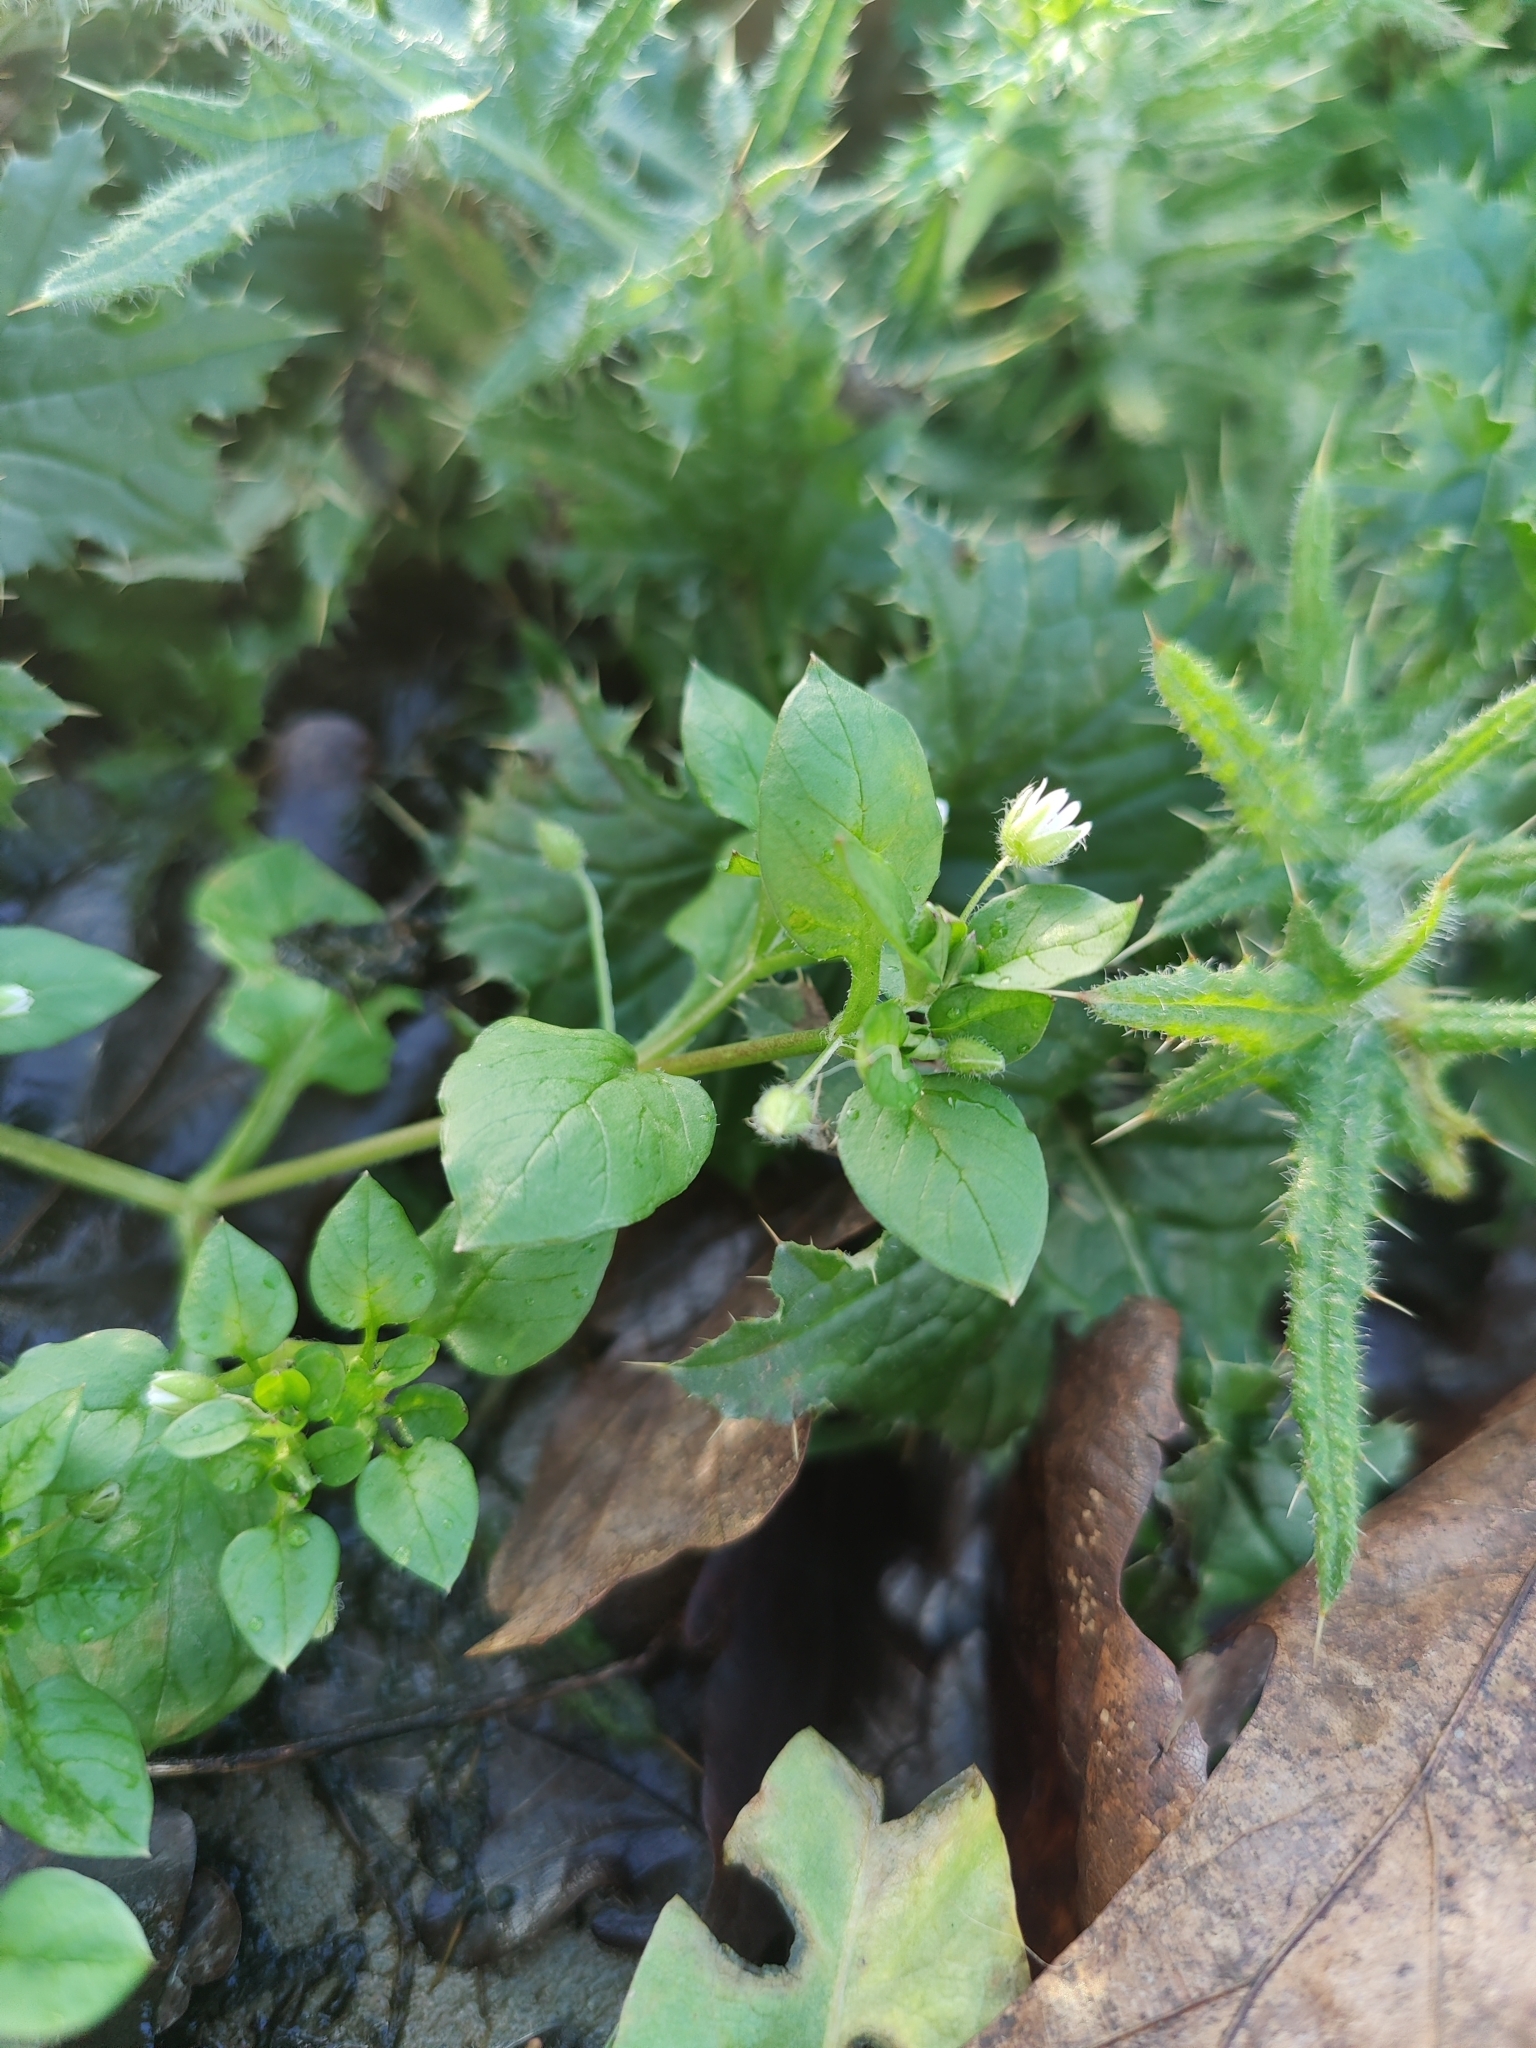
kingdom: Plantae
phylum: Tracheophyta
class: Magnoliopsida
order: Caryophyllales
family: Caryophyllaceae
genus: Stellaria
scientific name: Stellaria media
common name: Common chickweed
